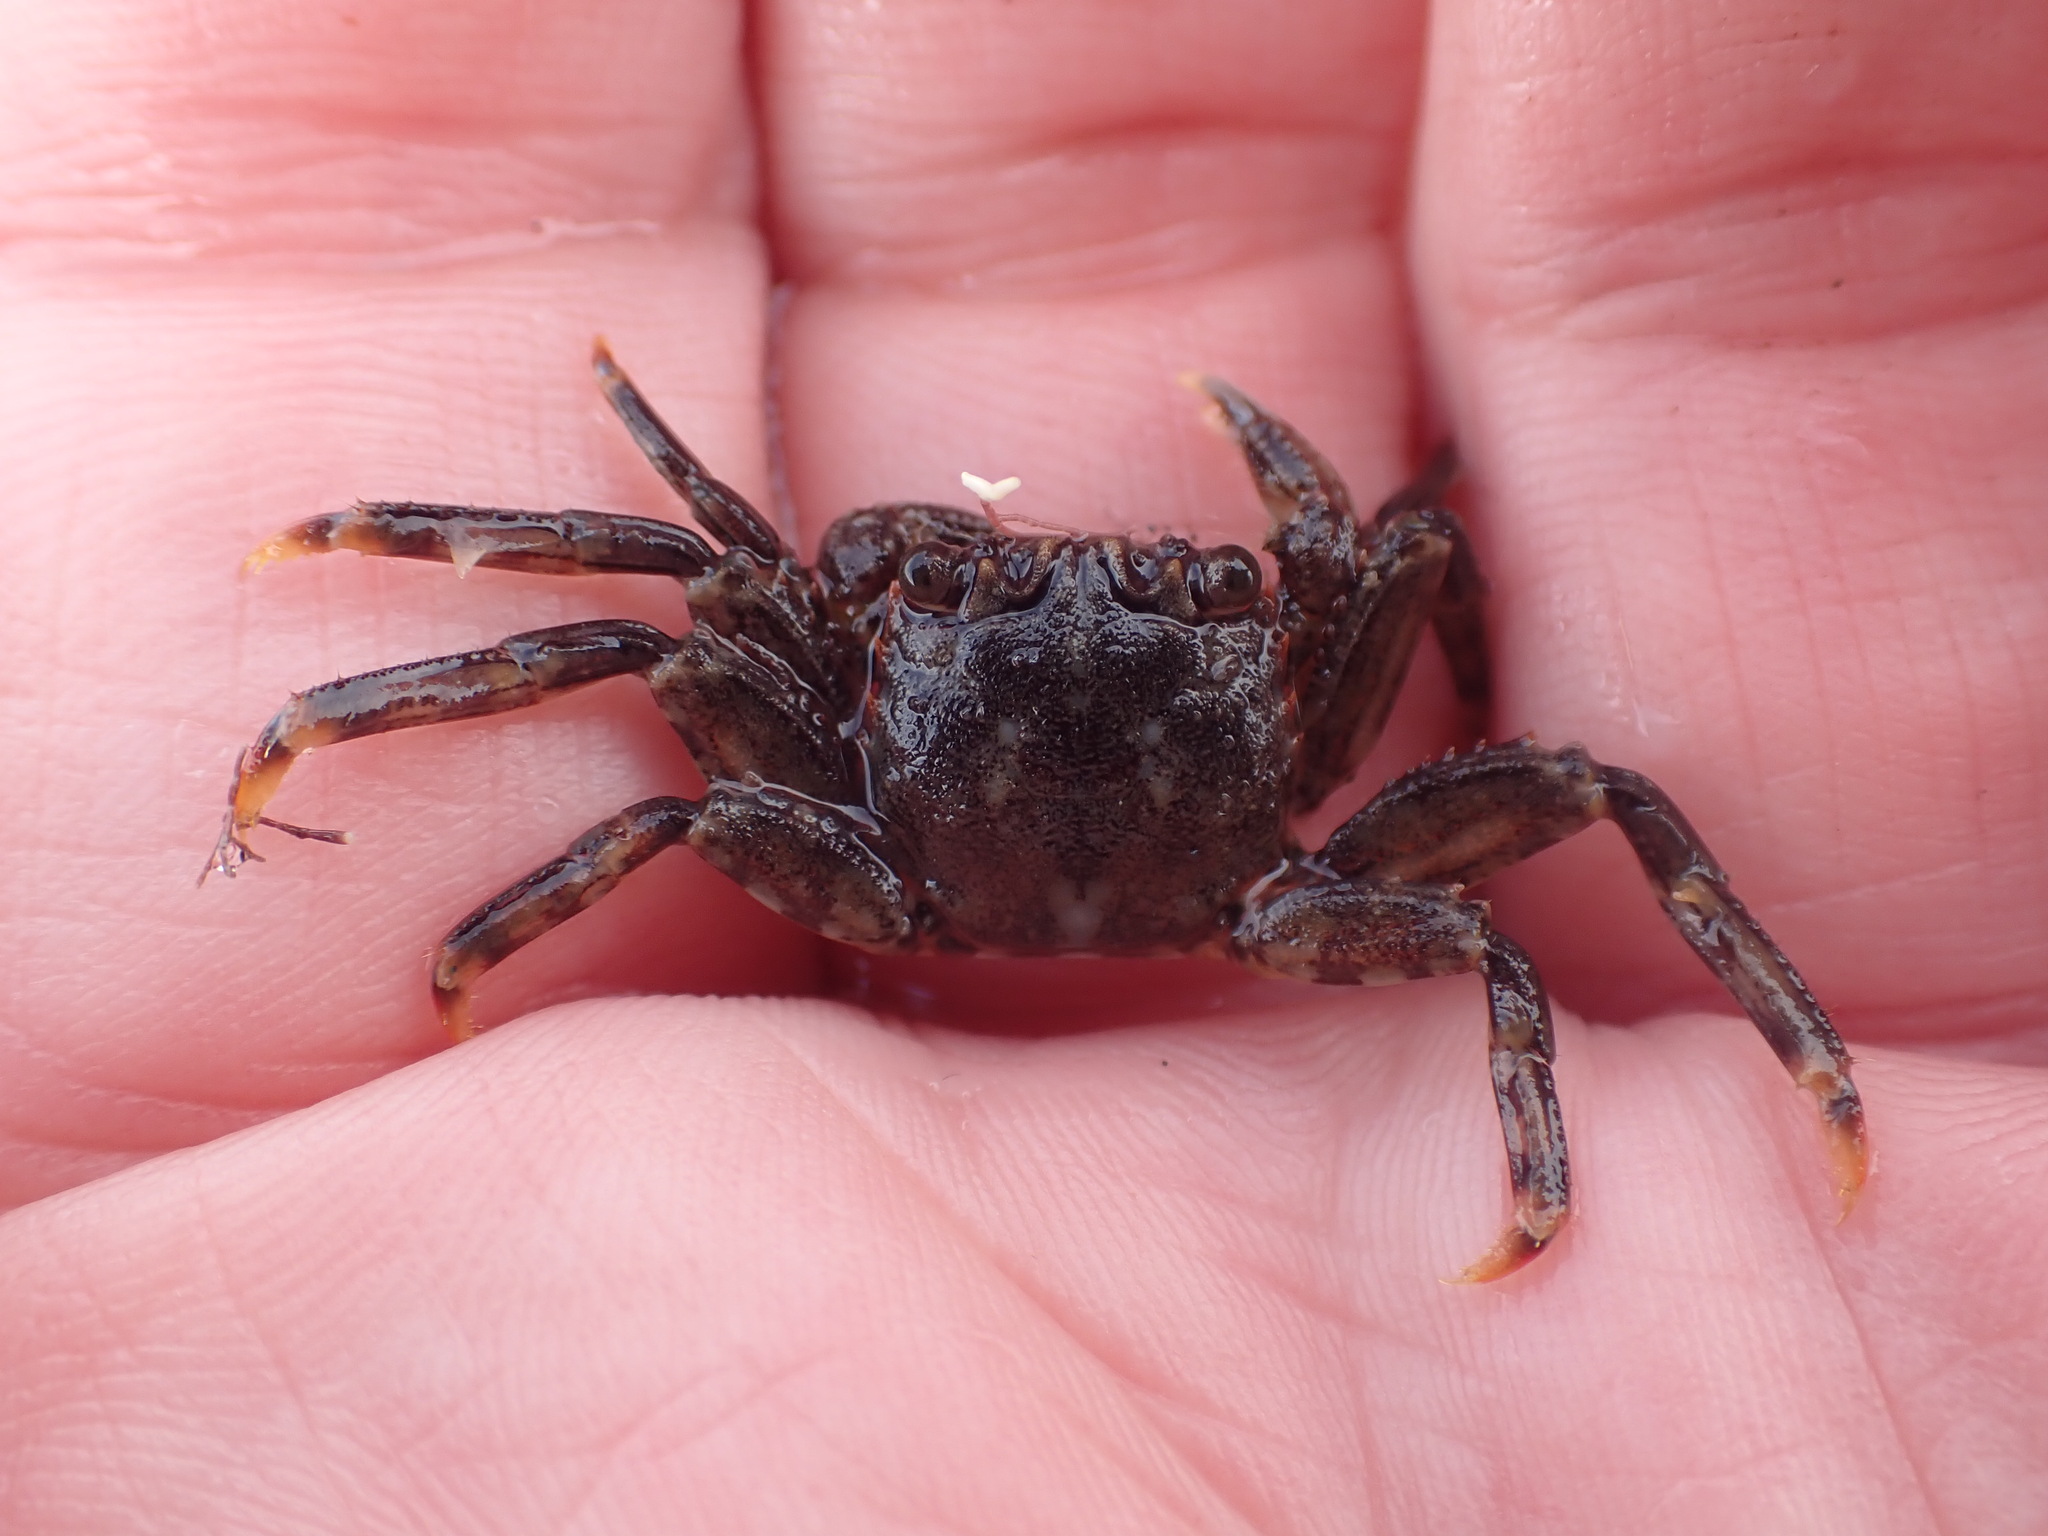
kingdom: Animalia
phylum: Arthropoda
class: Malacostraca
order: Decapoda
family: Plagusiidae
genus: Guinusia
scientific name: Guinusia chabrus
